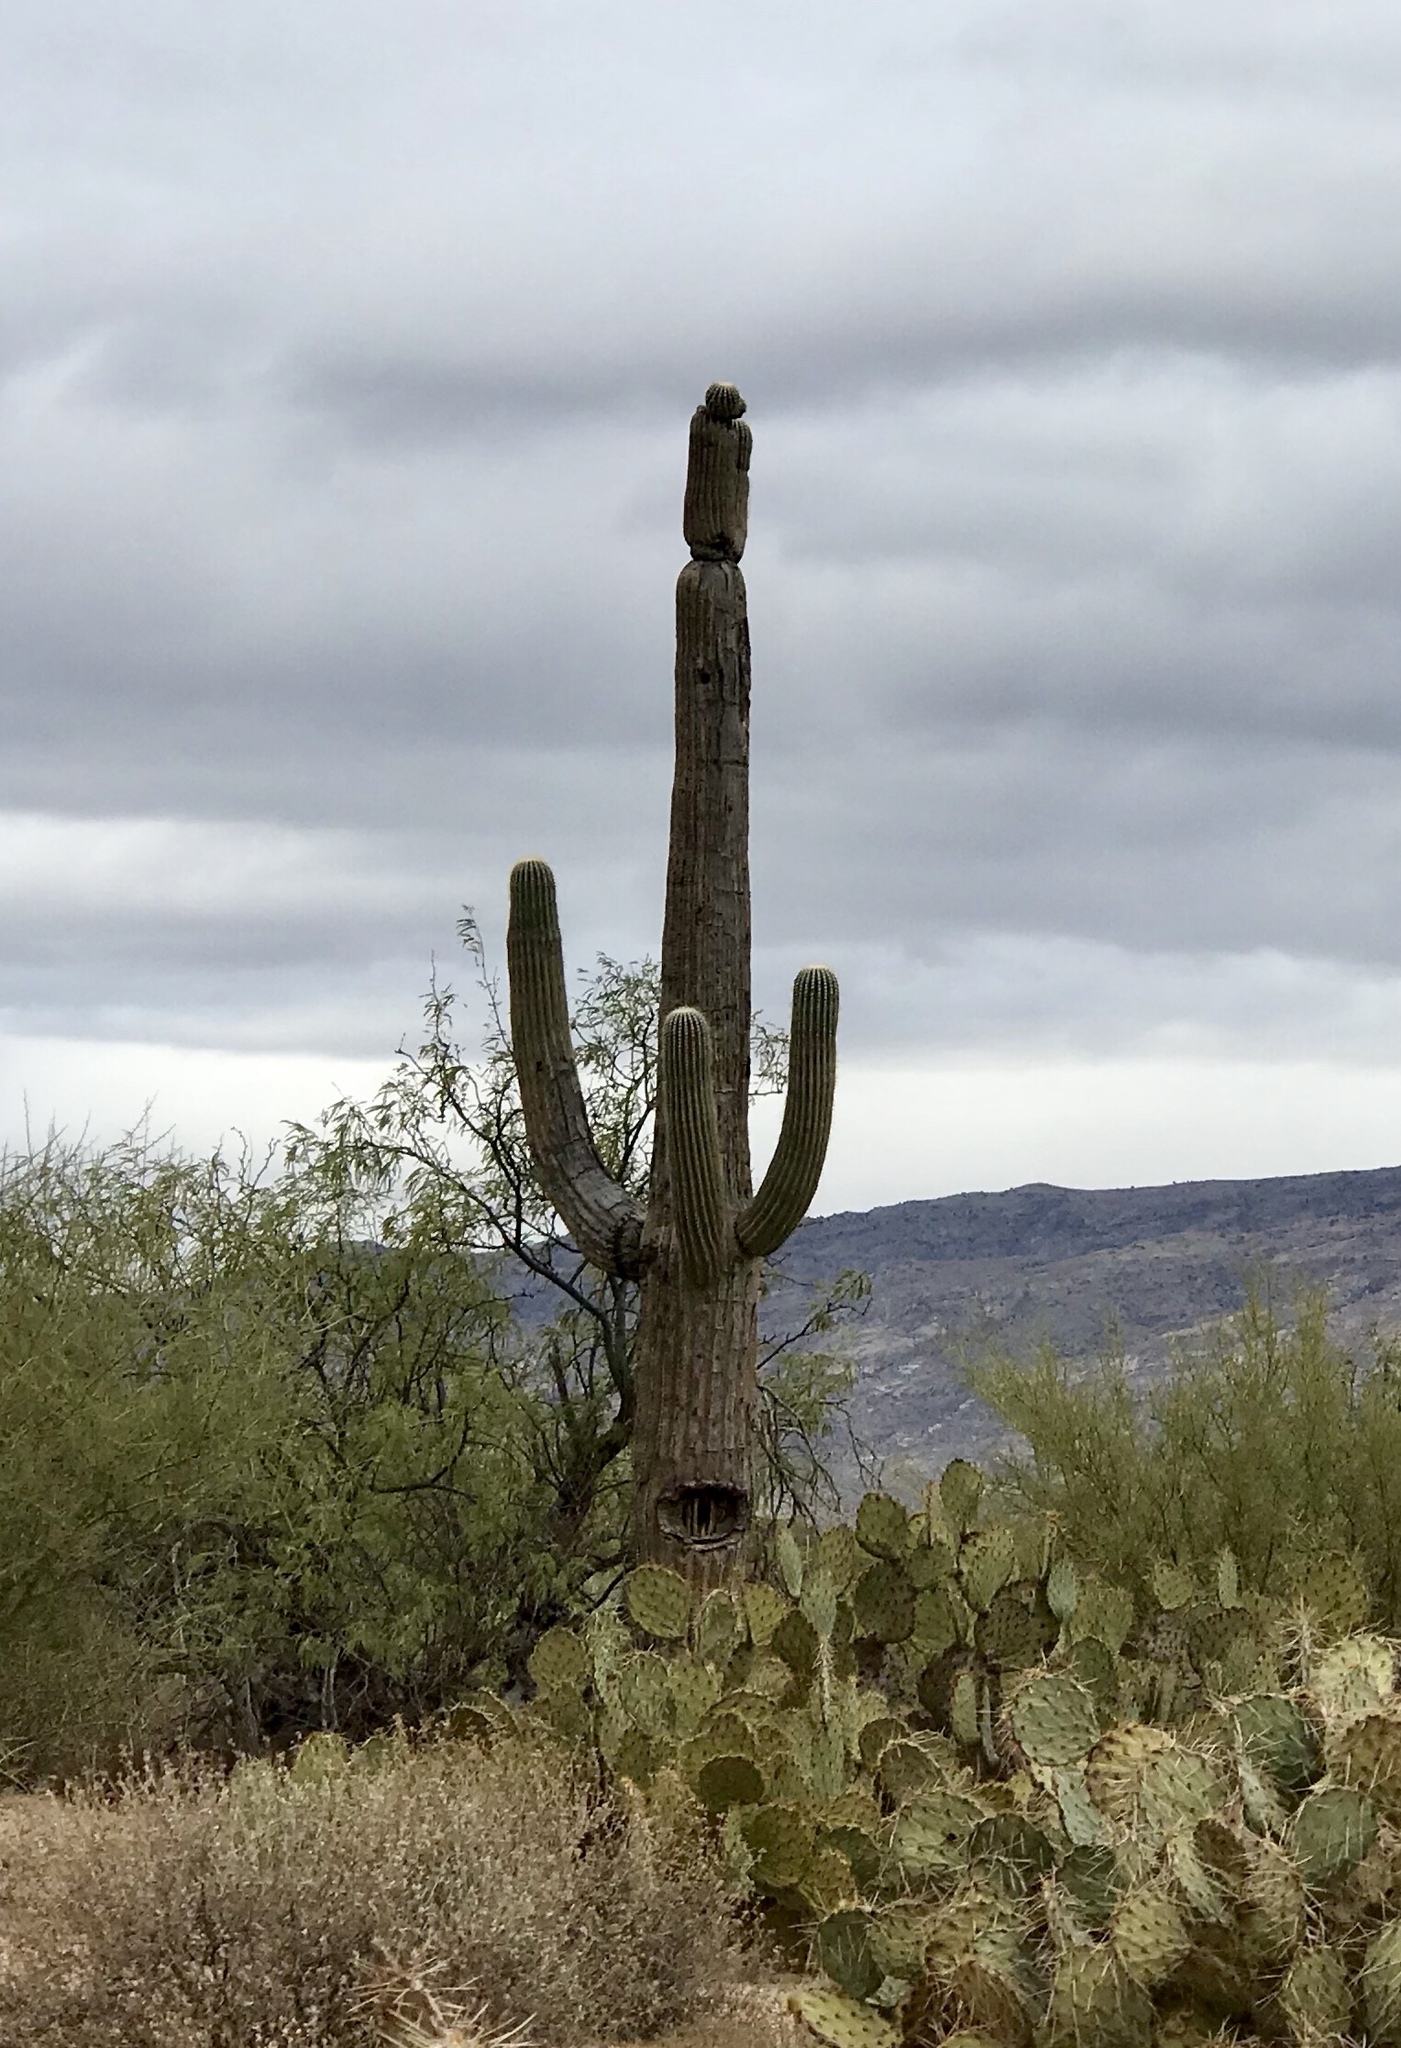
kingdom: Plantae
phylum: Tracheophyta
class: Magnoliopsida
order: Caryophyllales
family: Cactaceae
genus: Carnegiea
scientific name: Carnegiea gigantea
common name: Saguaro
